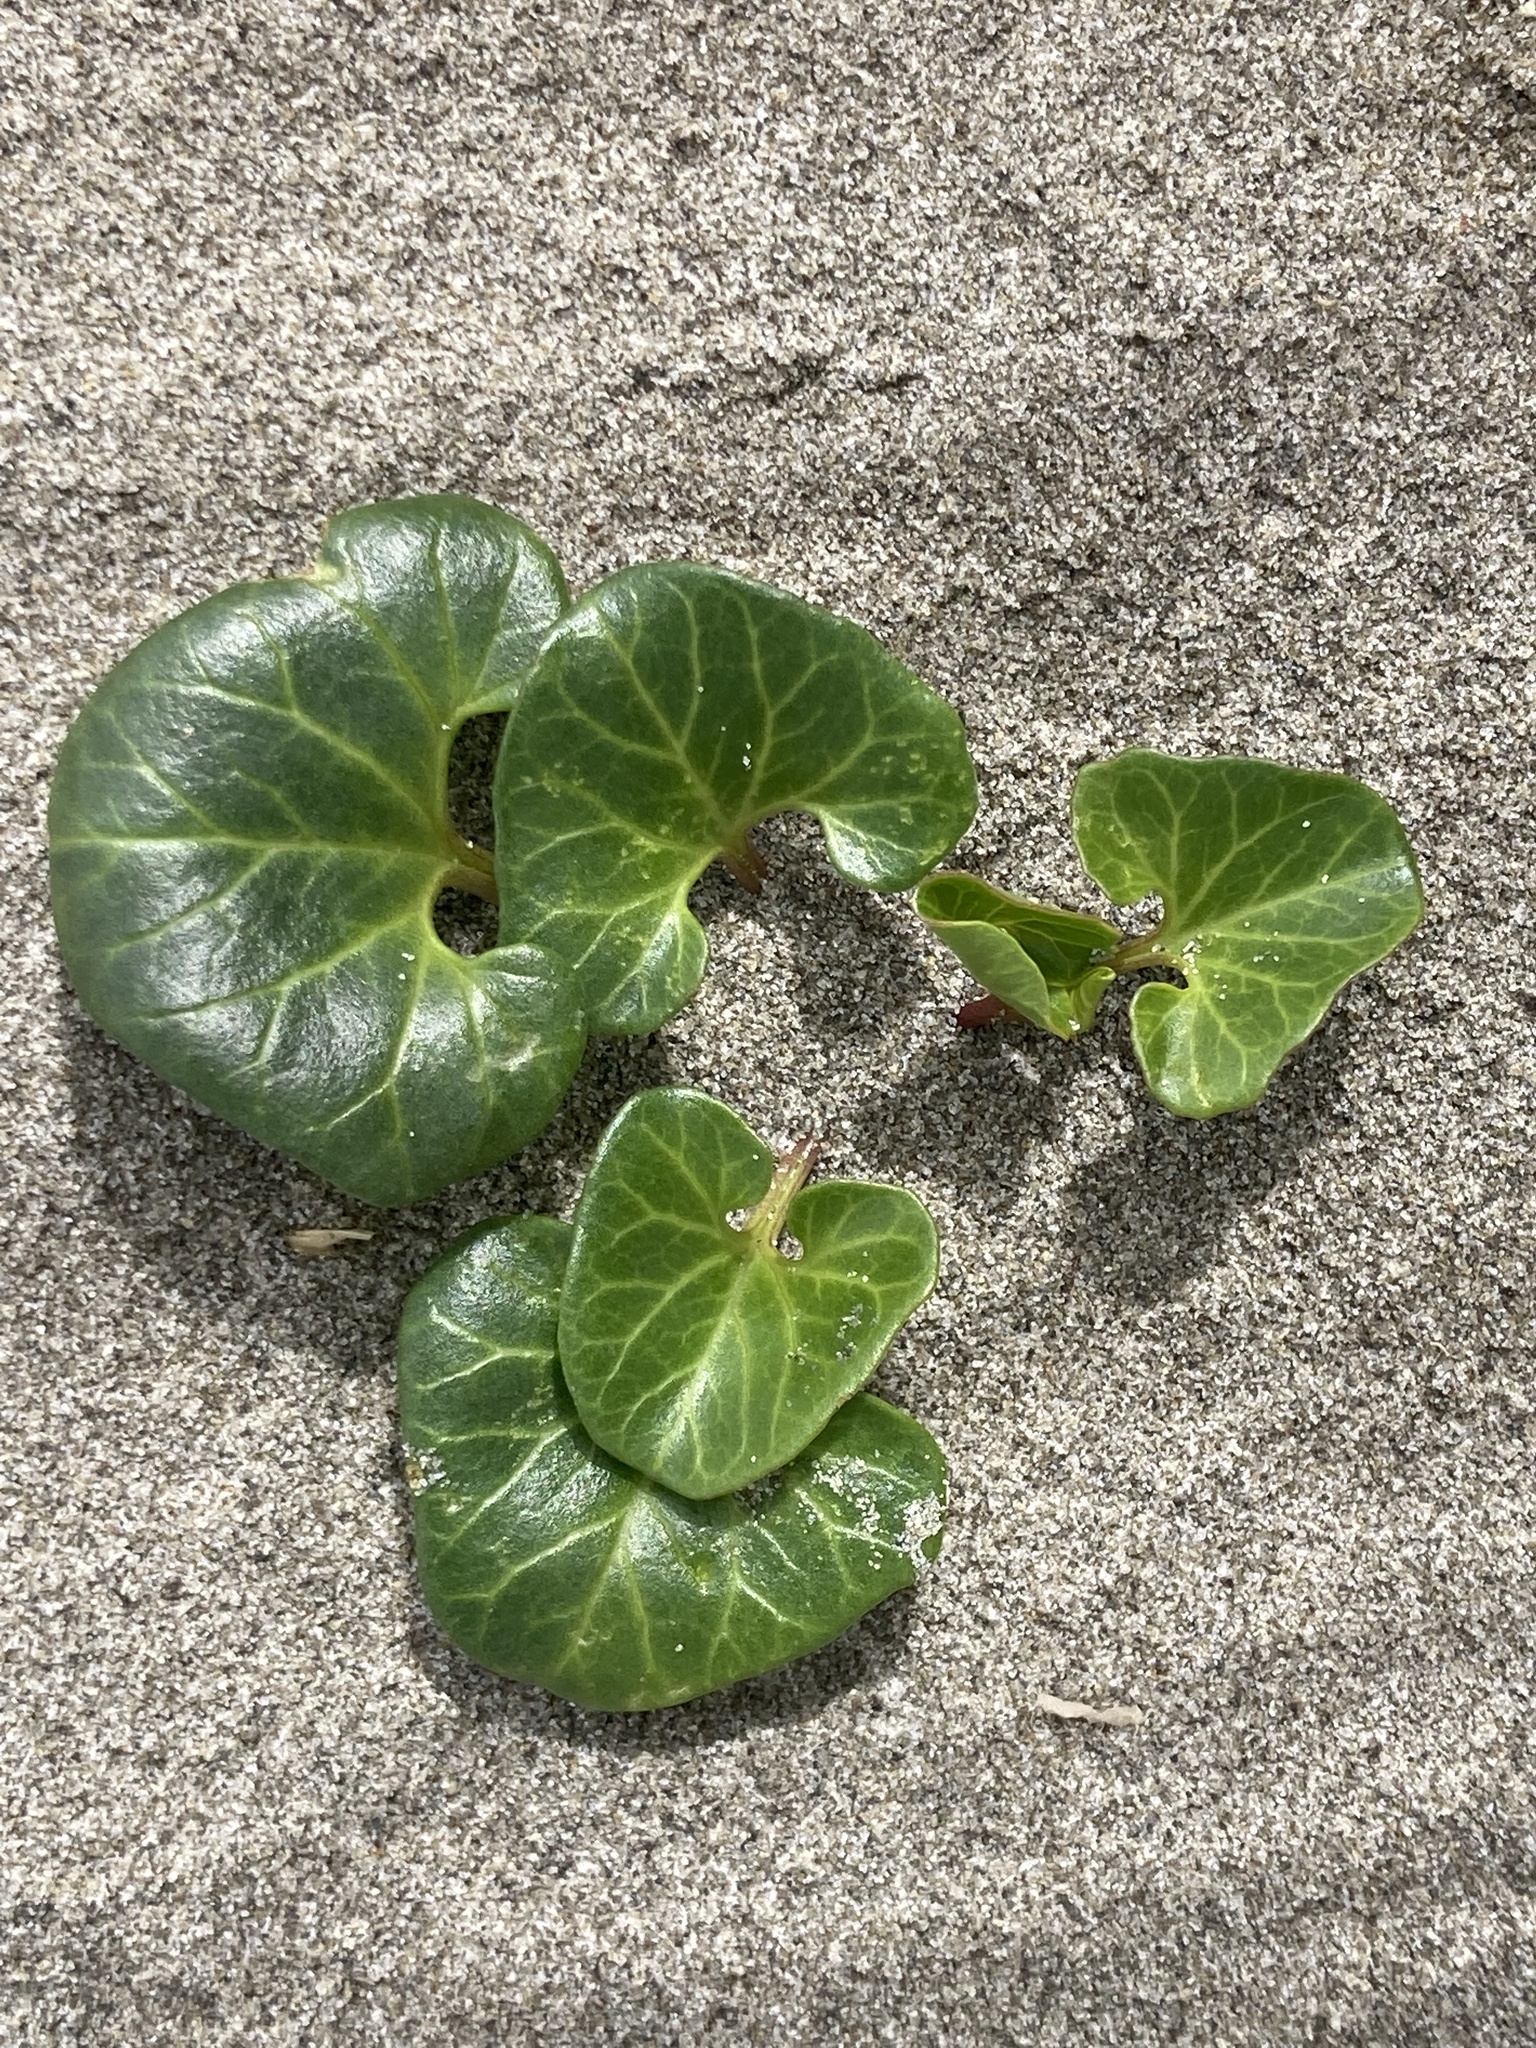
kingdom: Plantae
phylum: Tracheophyta
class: Magnoliopsida
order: Solanales
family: Convolvulaceae
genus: Calystegia
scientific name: Calystegia soldanella
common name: Sea bindweed
